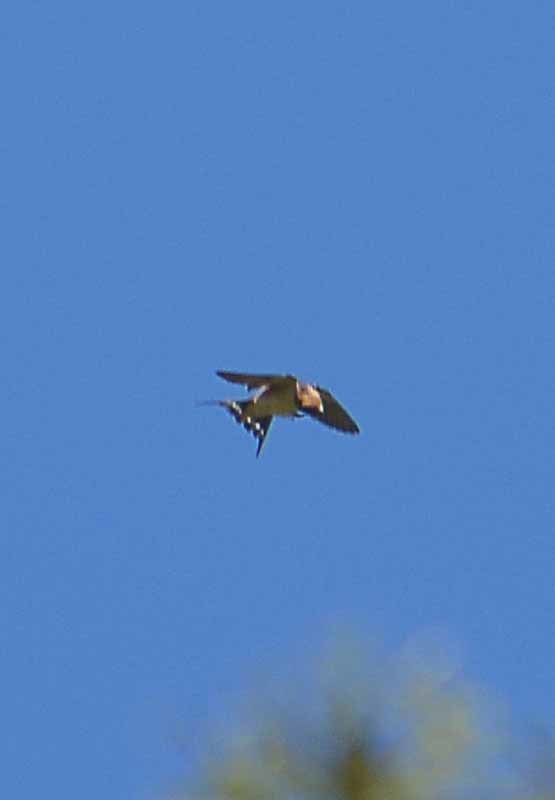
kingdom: Animalia
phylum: Chordata
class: Aves
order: Passeriformes
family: Hirundinidae
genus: Hirundo
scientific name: Hirundo rustica
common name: Barn swallow
